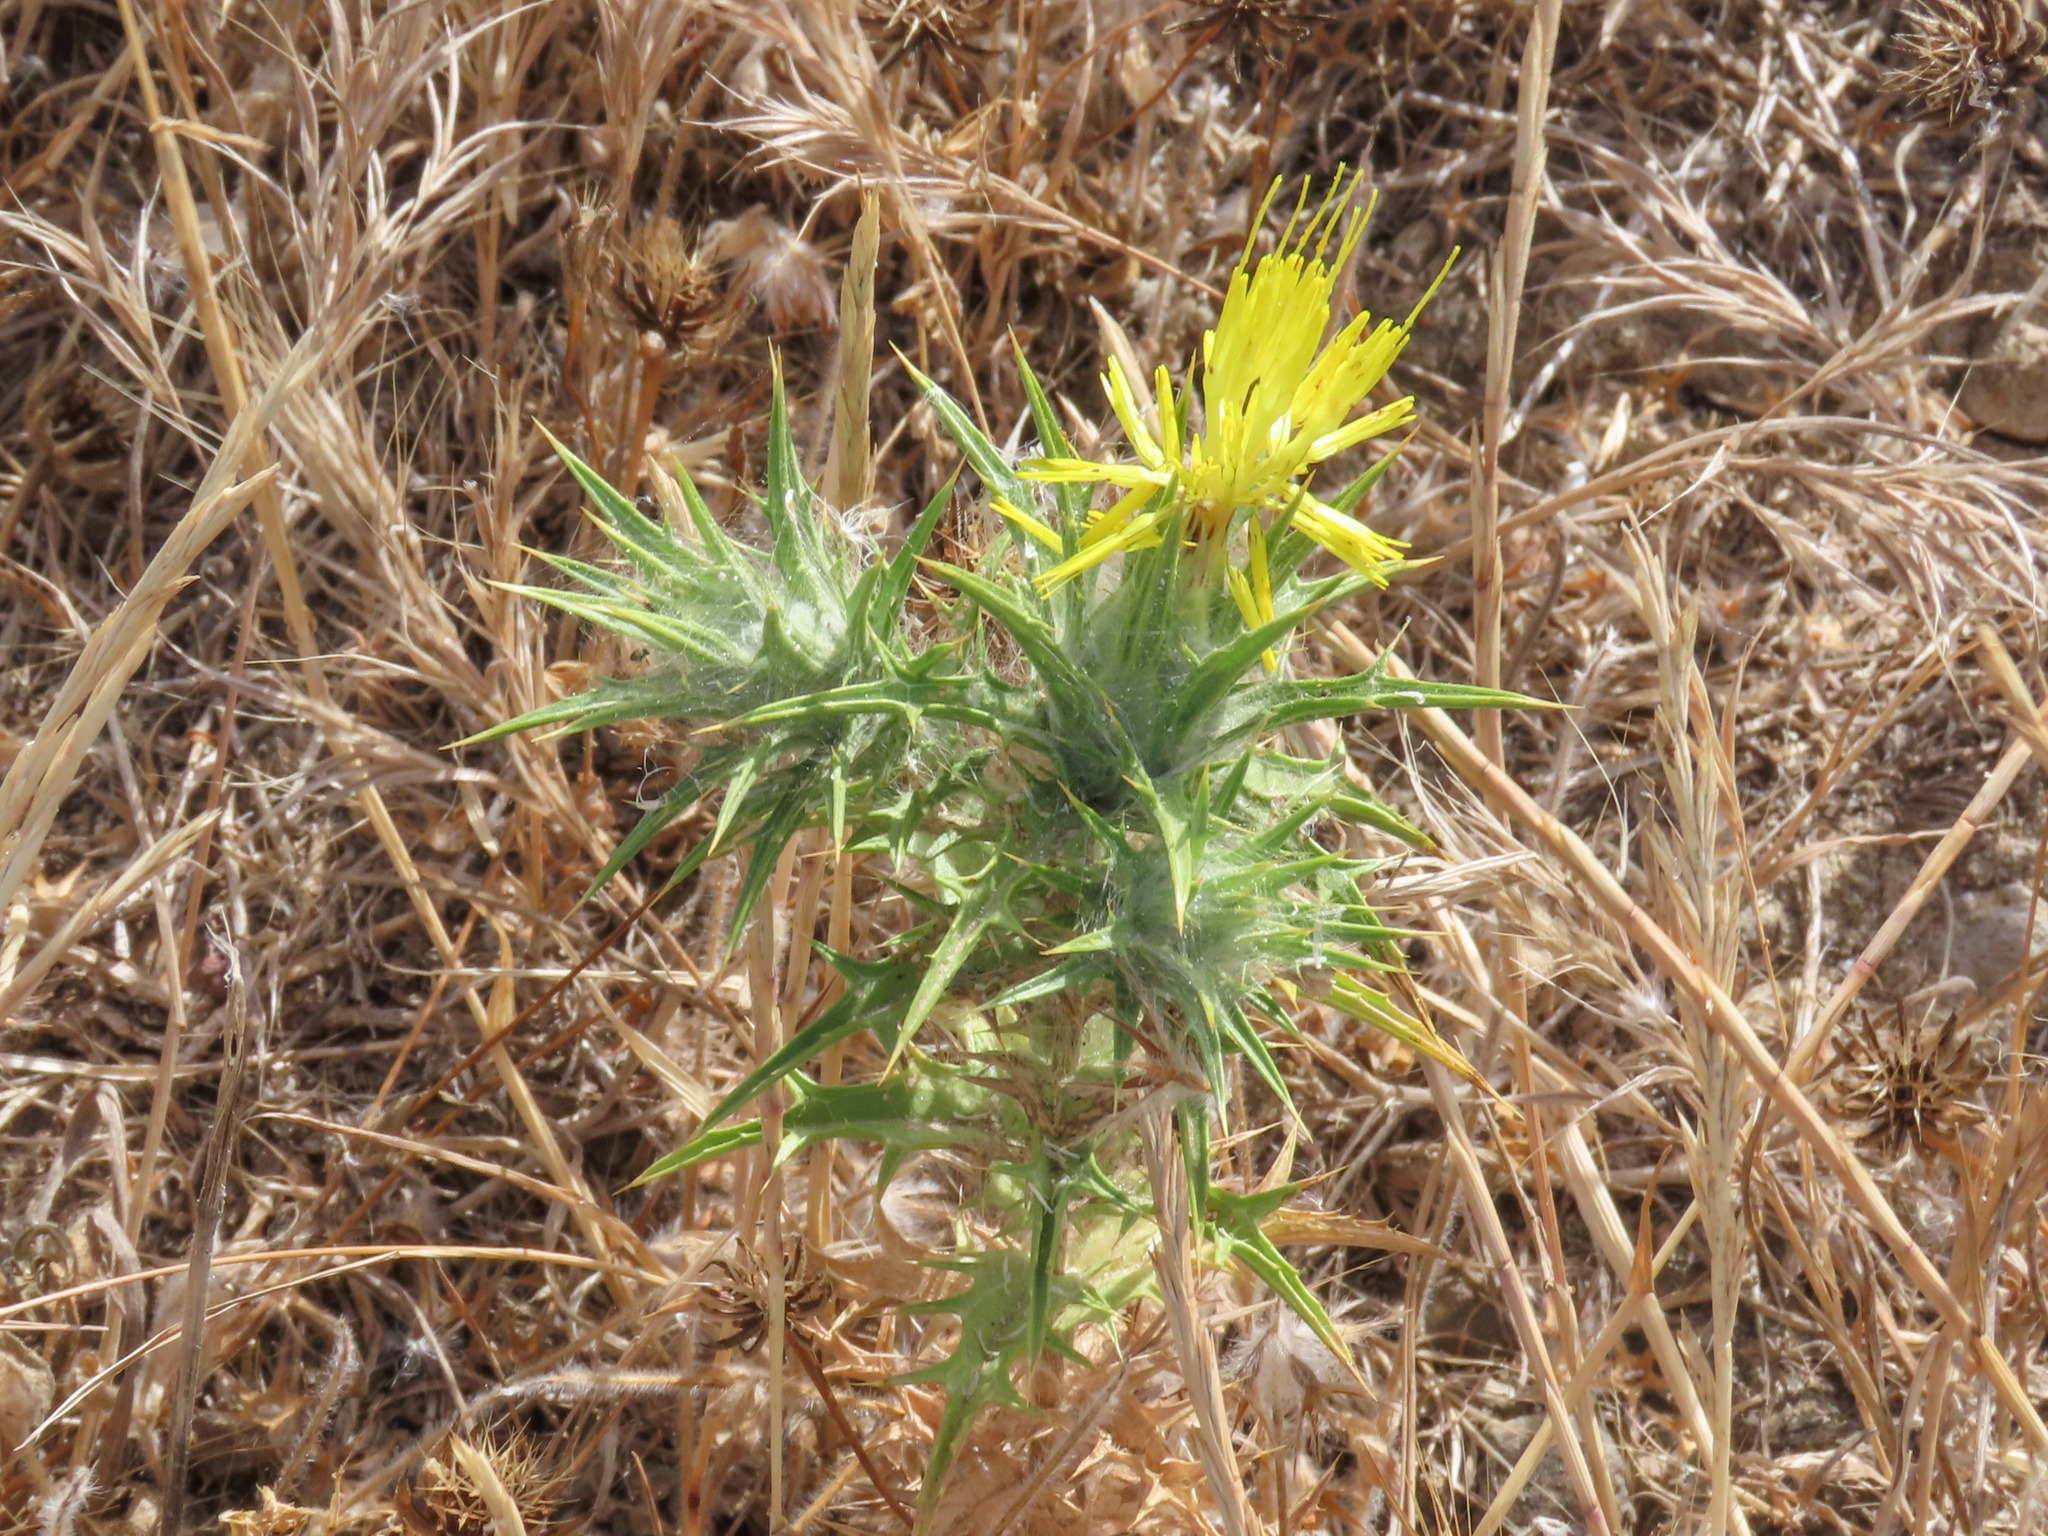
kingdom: Plantae
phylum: Tracheophyta
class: Magnoliopsida
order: Asterales
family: Asteraceae
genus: Carthamus
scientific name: Carthamus lanatus
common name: Downy safflower
